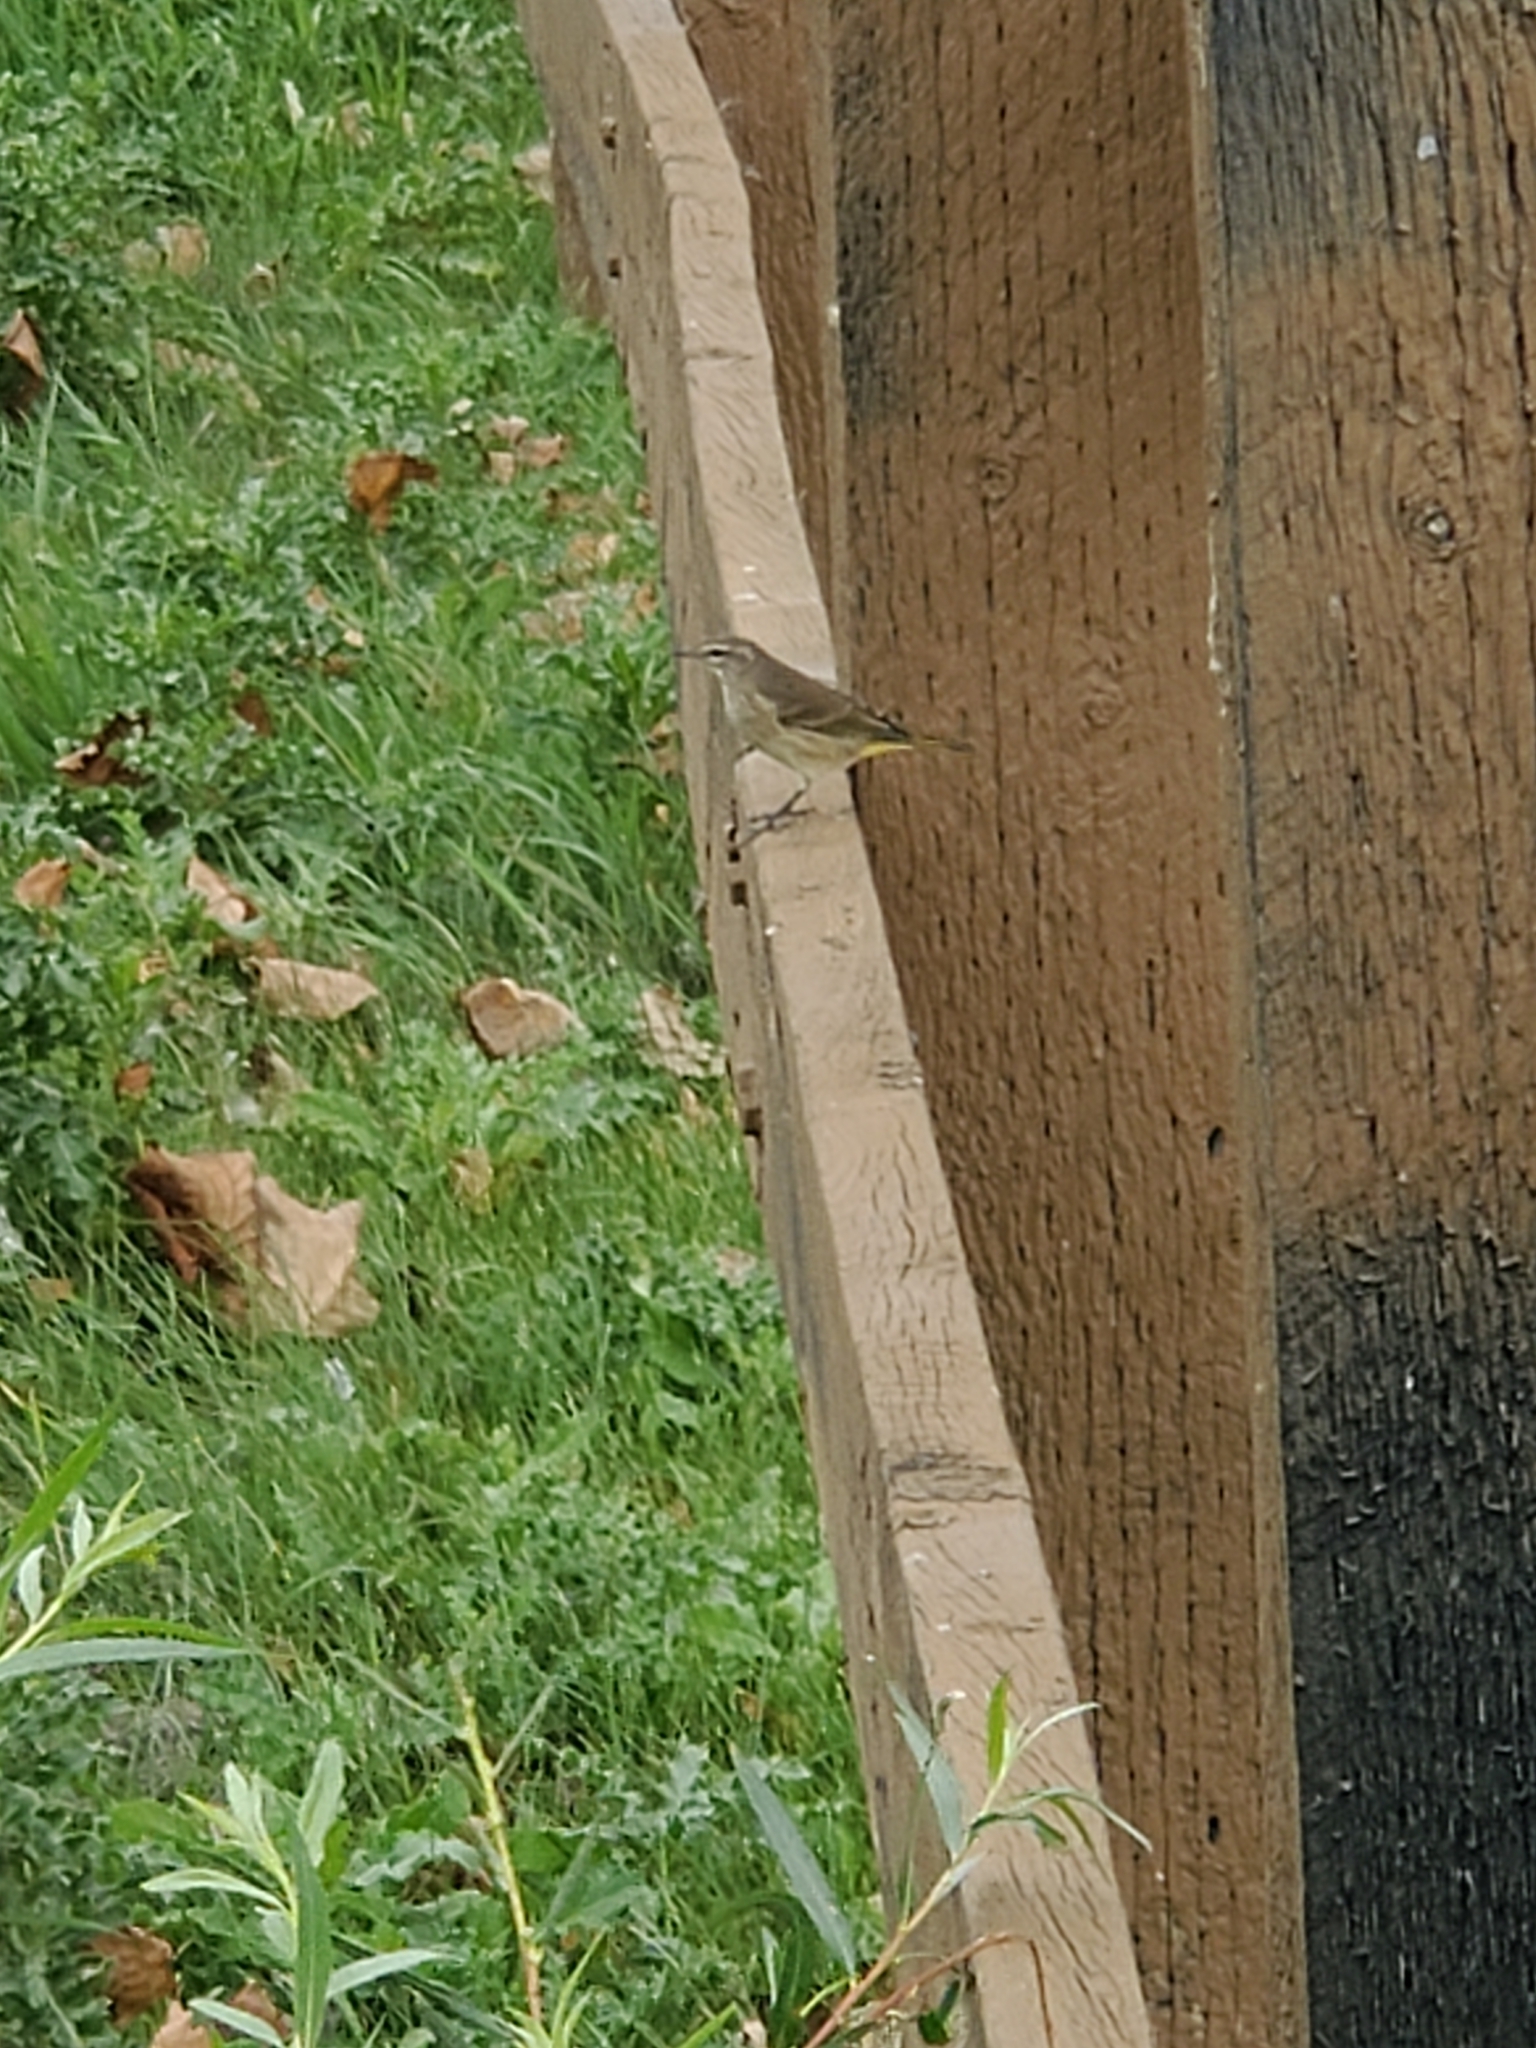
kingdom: Animalia
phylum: Chordata
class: Aves
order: Passeriformes
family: Parulidae
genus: Setophaga
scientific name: Setophaga palmarum
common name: Palm warbler
